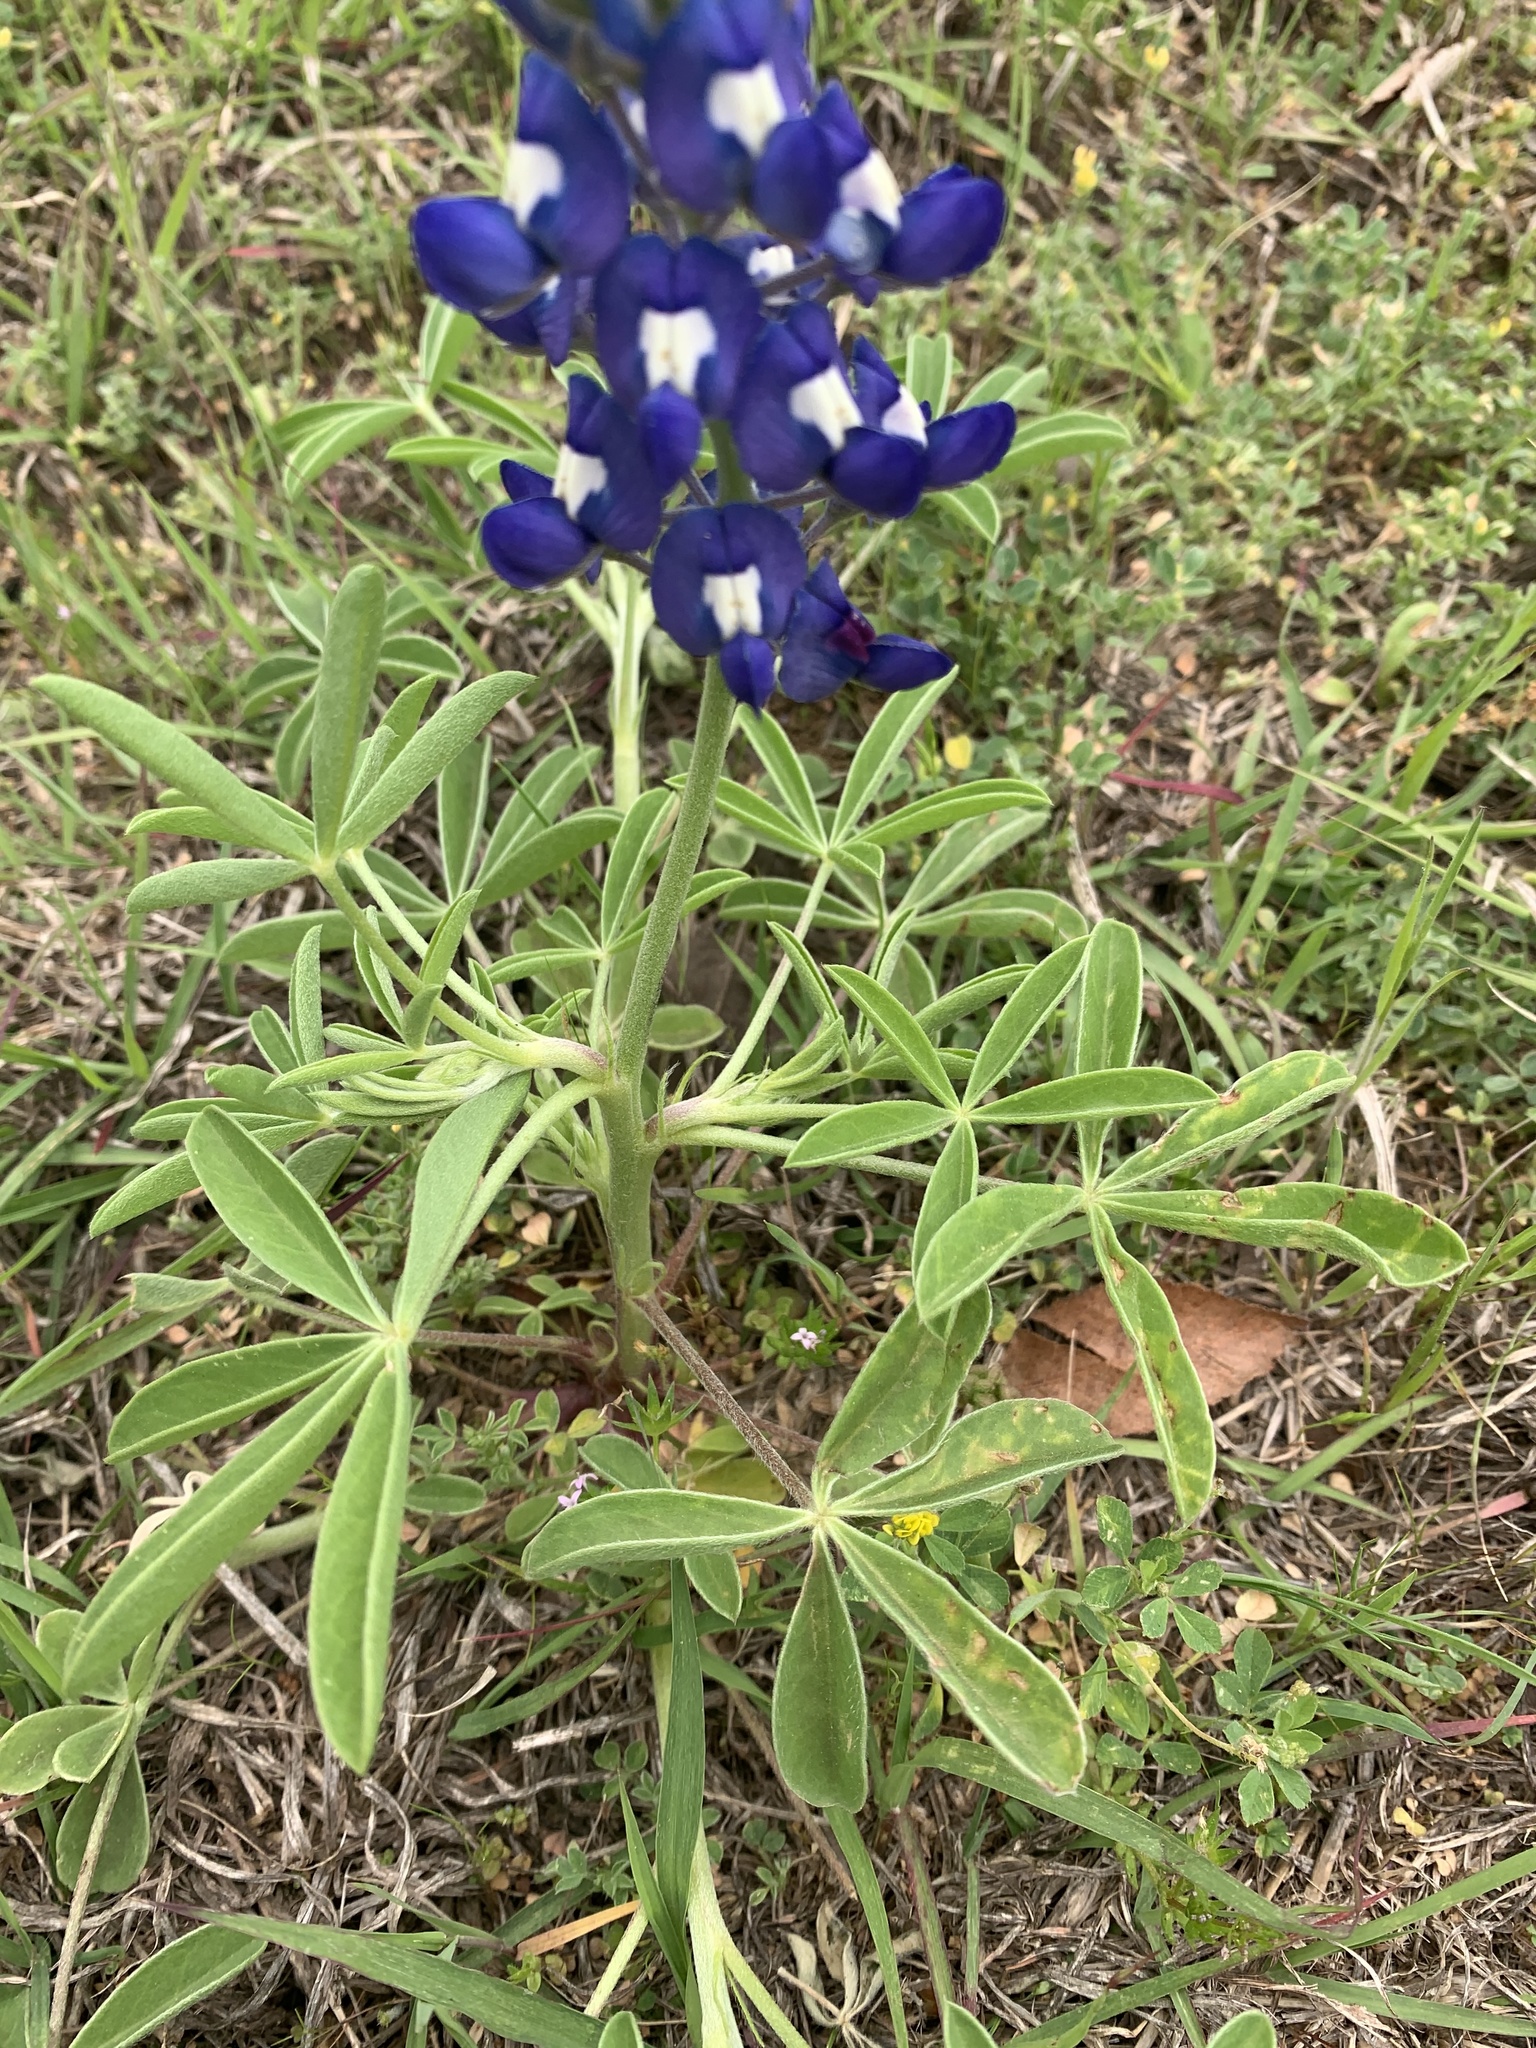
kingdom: Plantae
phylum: Tracheophyta
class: Magnoliopsida
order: Fabales
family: Fabaceae
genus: Lupinus
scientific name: Lupinus texensis
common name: Texas bluebonnet
